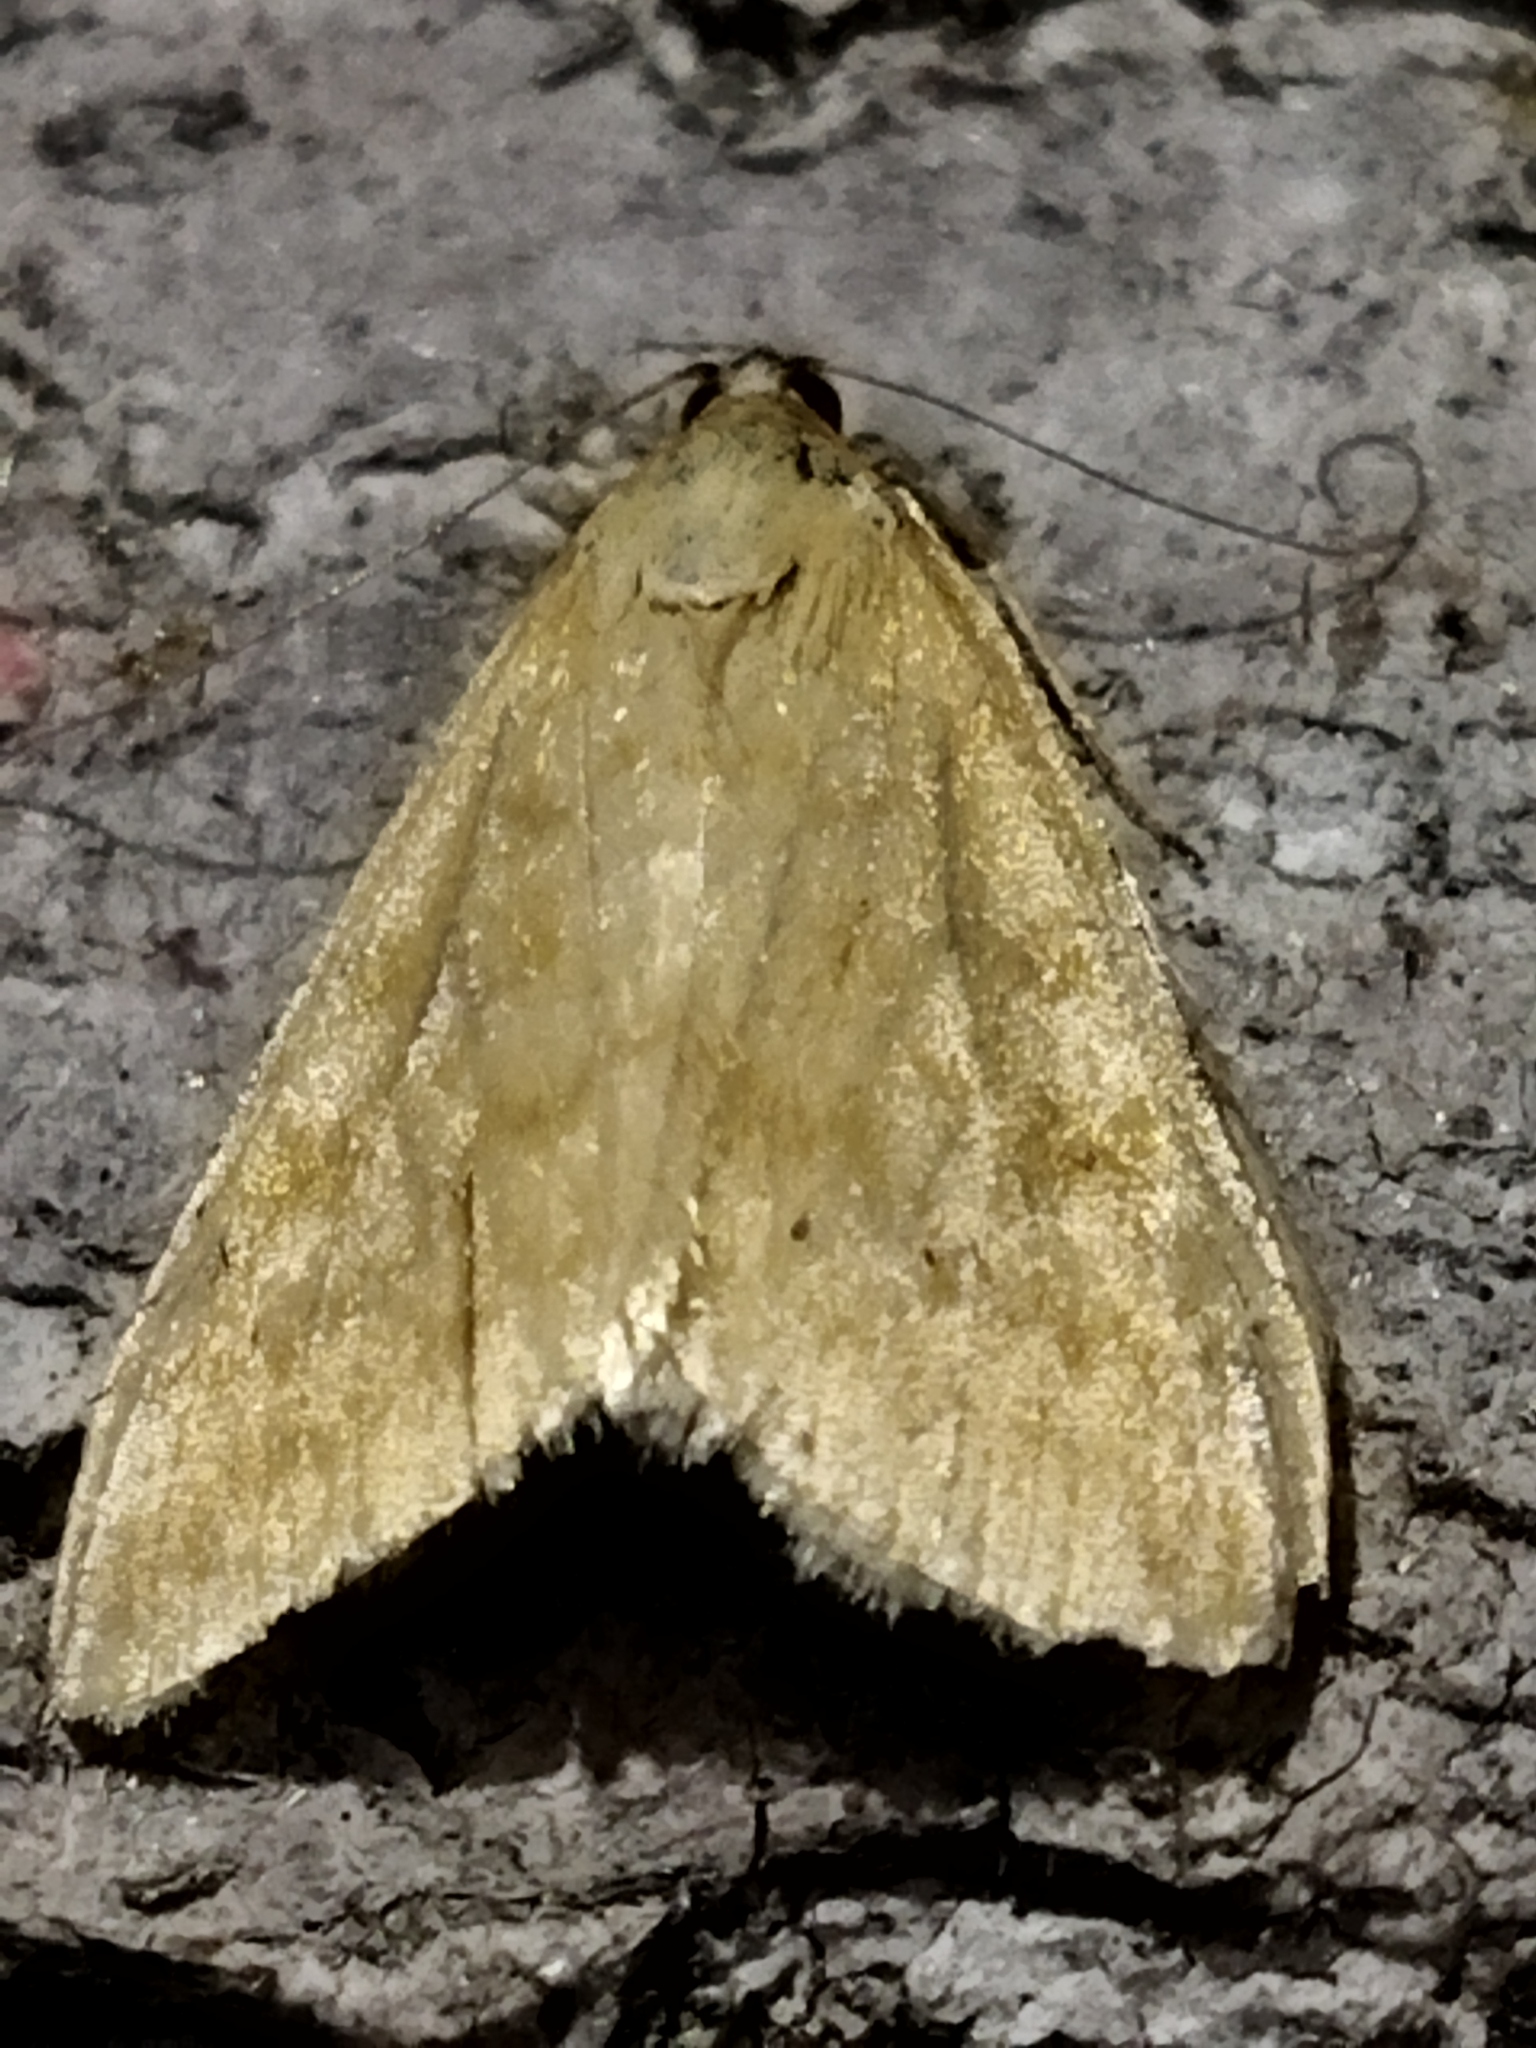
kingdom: Animalia
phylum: Arthropoda
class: Insecta
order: Lepidoptera
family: Crambidae
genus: Sitochroa
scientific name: Sitochroa verticalis
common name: Lesser pearl
